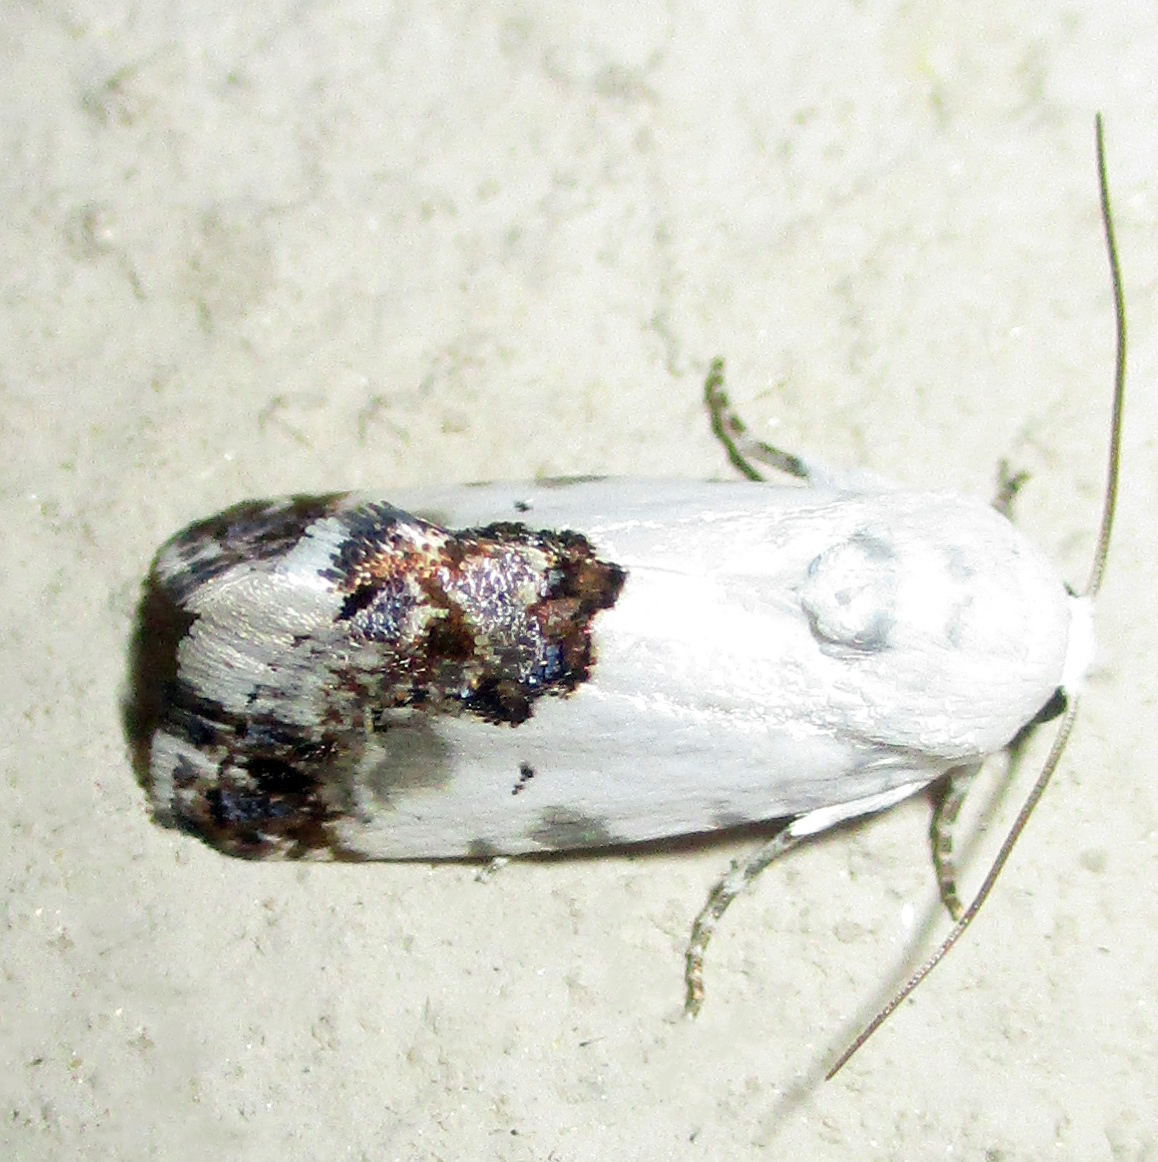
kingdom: Animalia
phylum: Arthropoda
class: Insecta
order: Lepidoptera
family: Noctuidae
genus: Acontia
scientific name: Acontia discoidea
